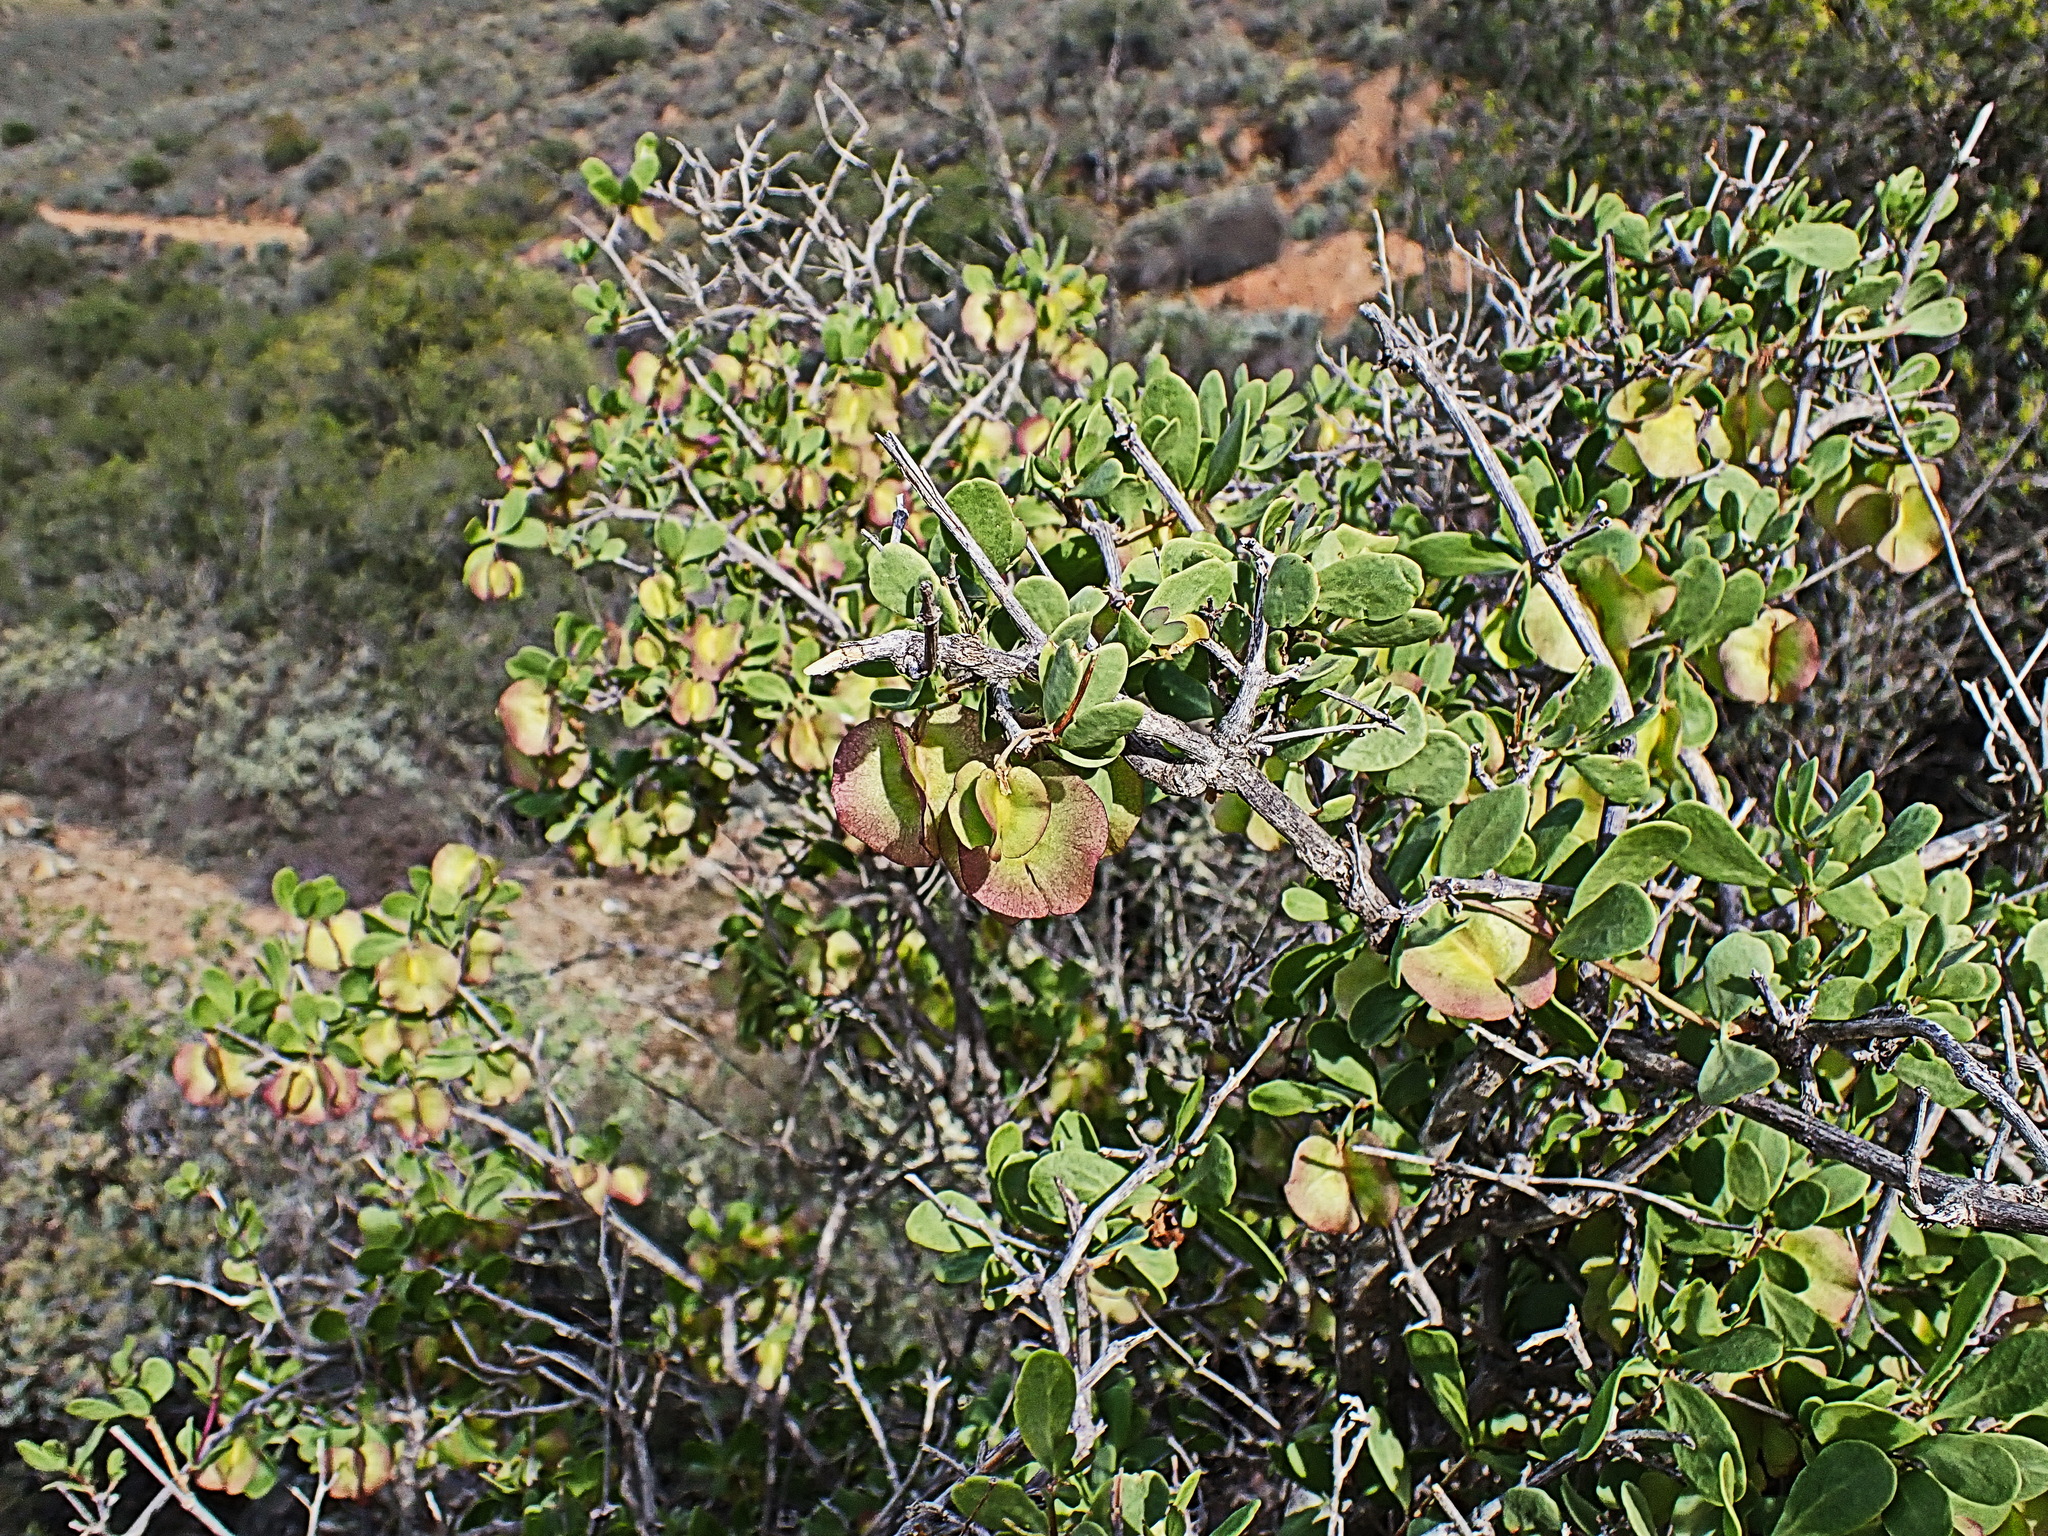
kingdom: Plantae
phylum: Tracheophyta
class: Magnoliopsida
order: Zygophyllales
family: Zygophyllaceae
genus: Roepera
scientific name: Roepera morgsana
